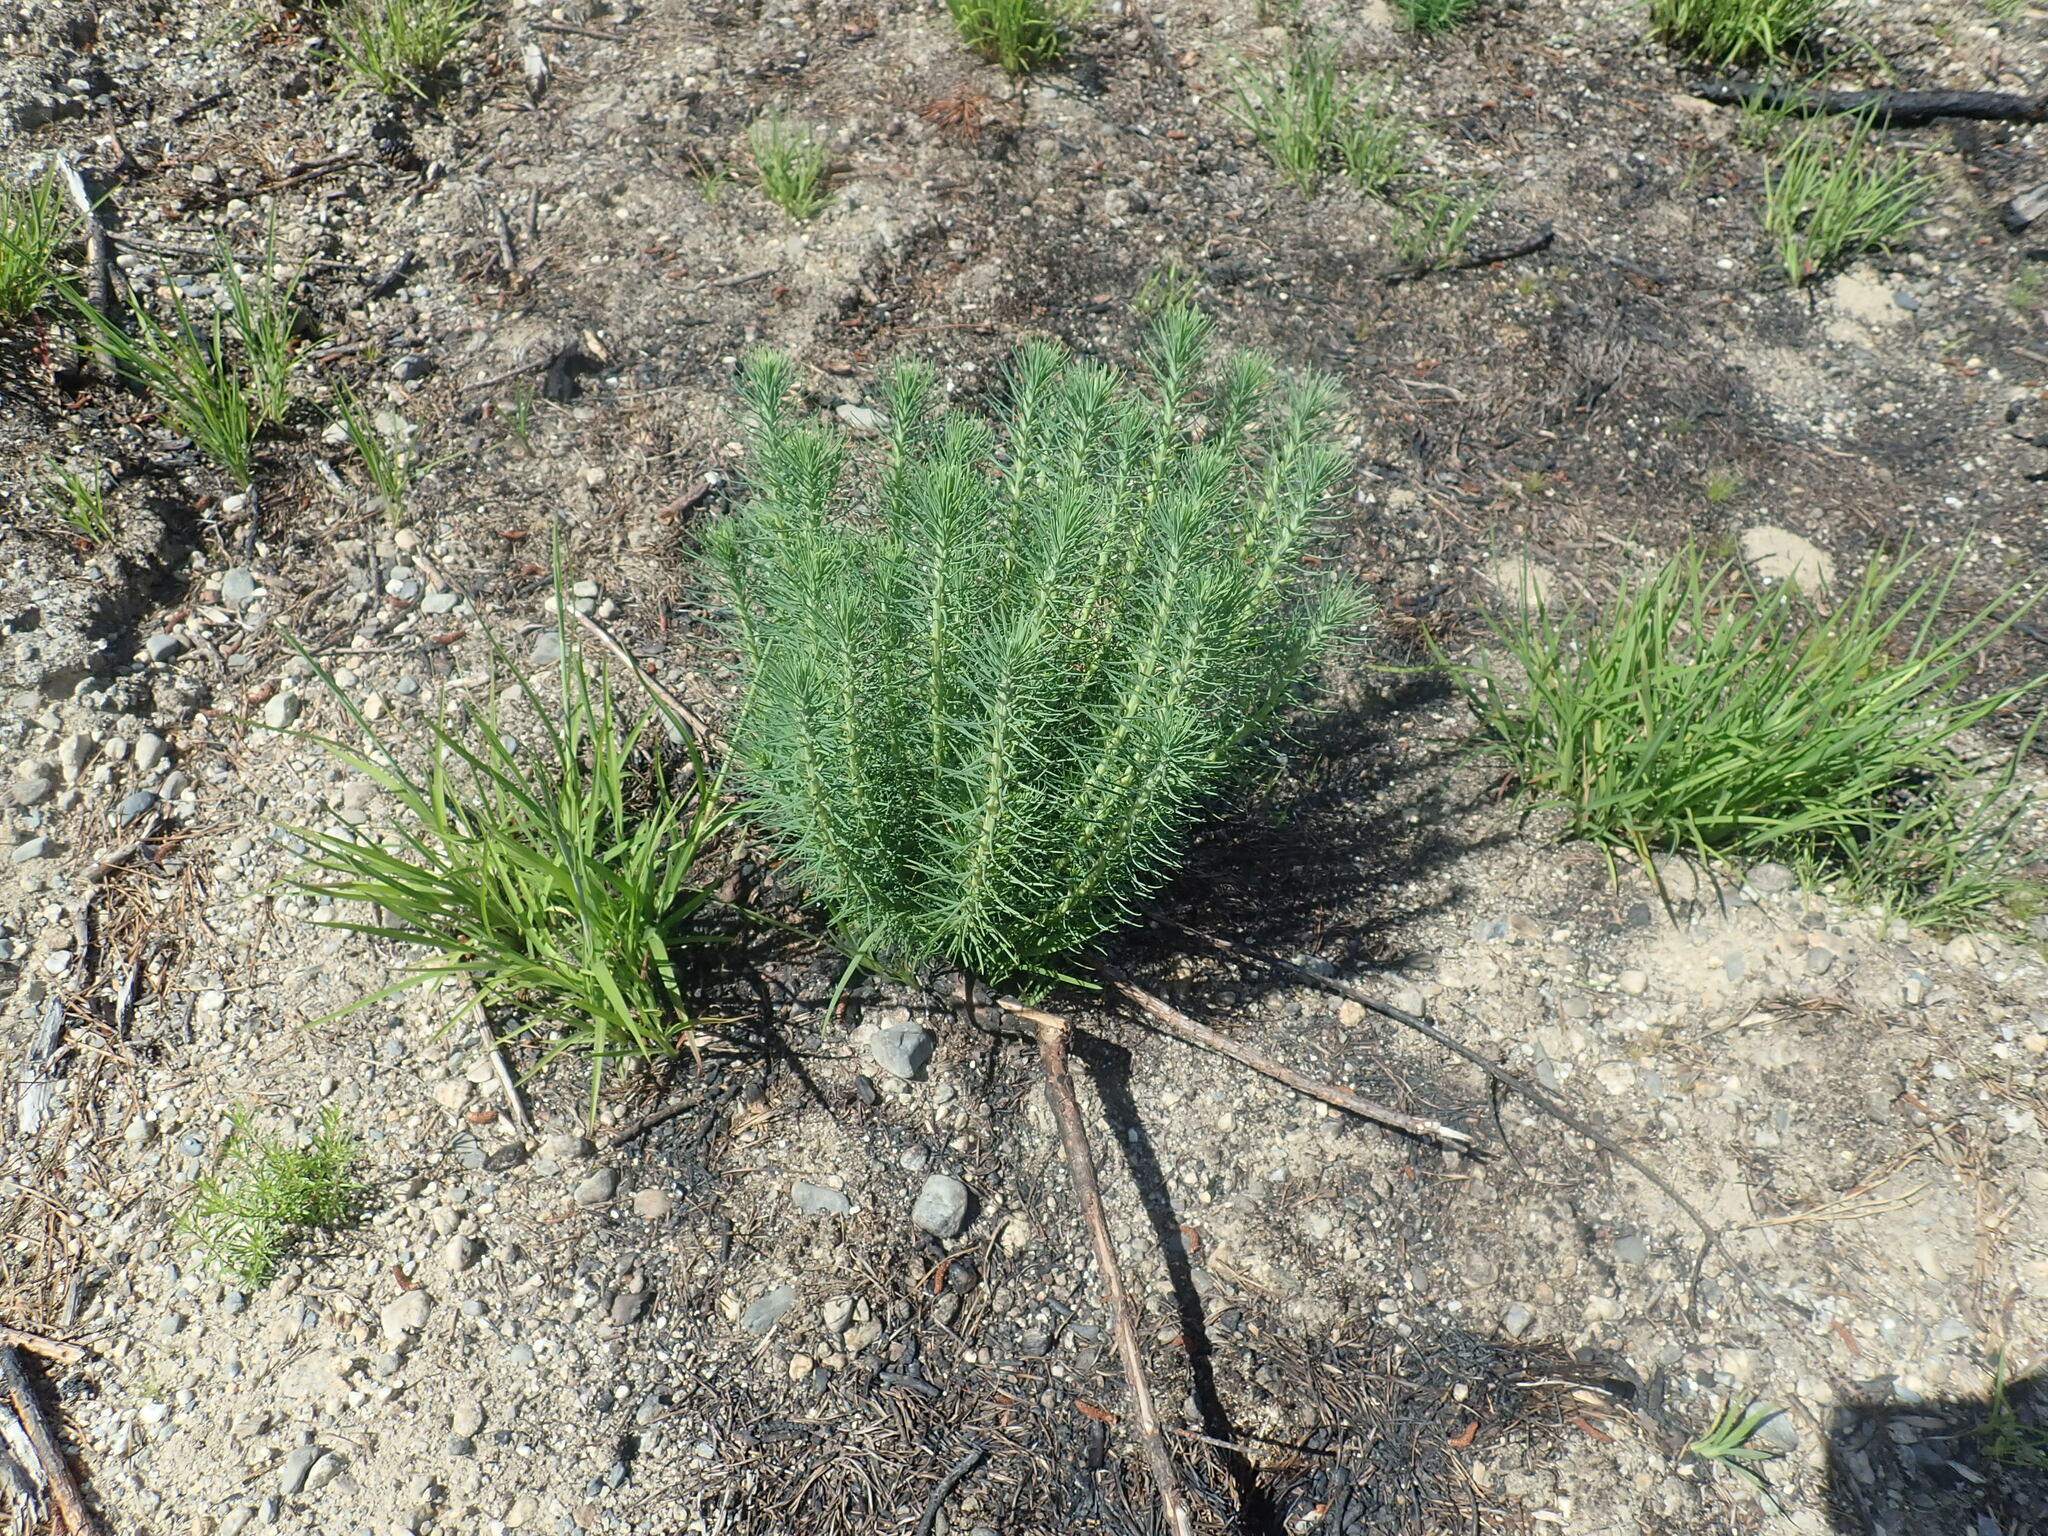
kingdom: Plantae
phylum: Tracheophyta
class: Pinopsida
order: Pinales
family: Pinaceae
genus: Pinus
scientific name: Pinus rigida
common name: Pitch pine
